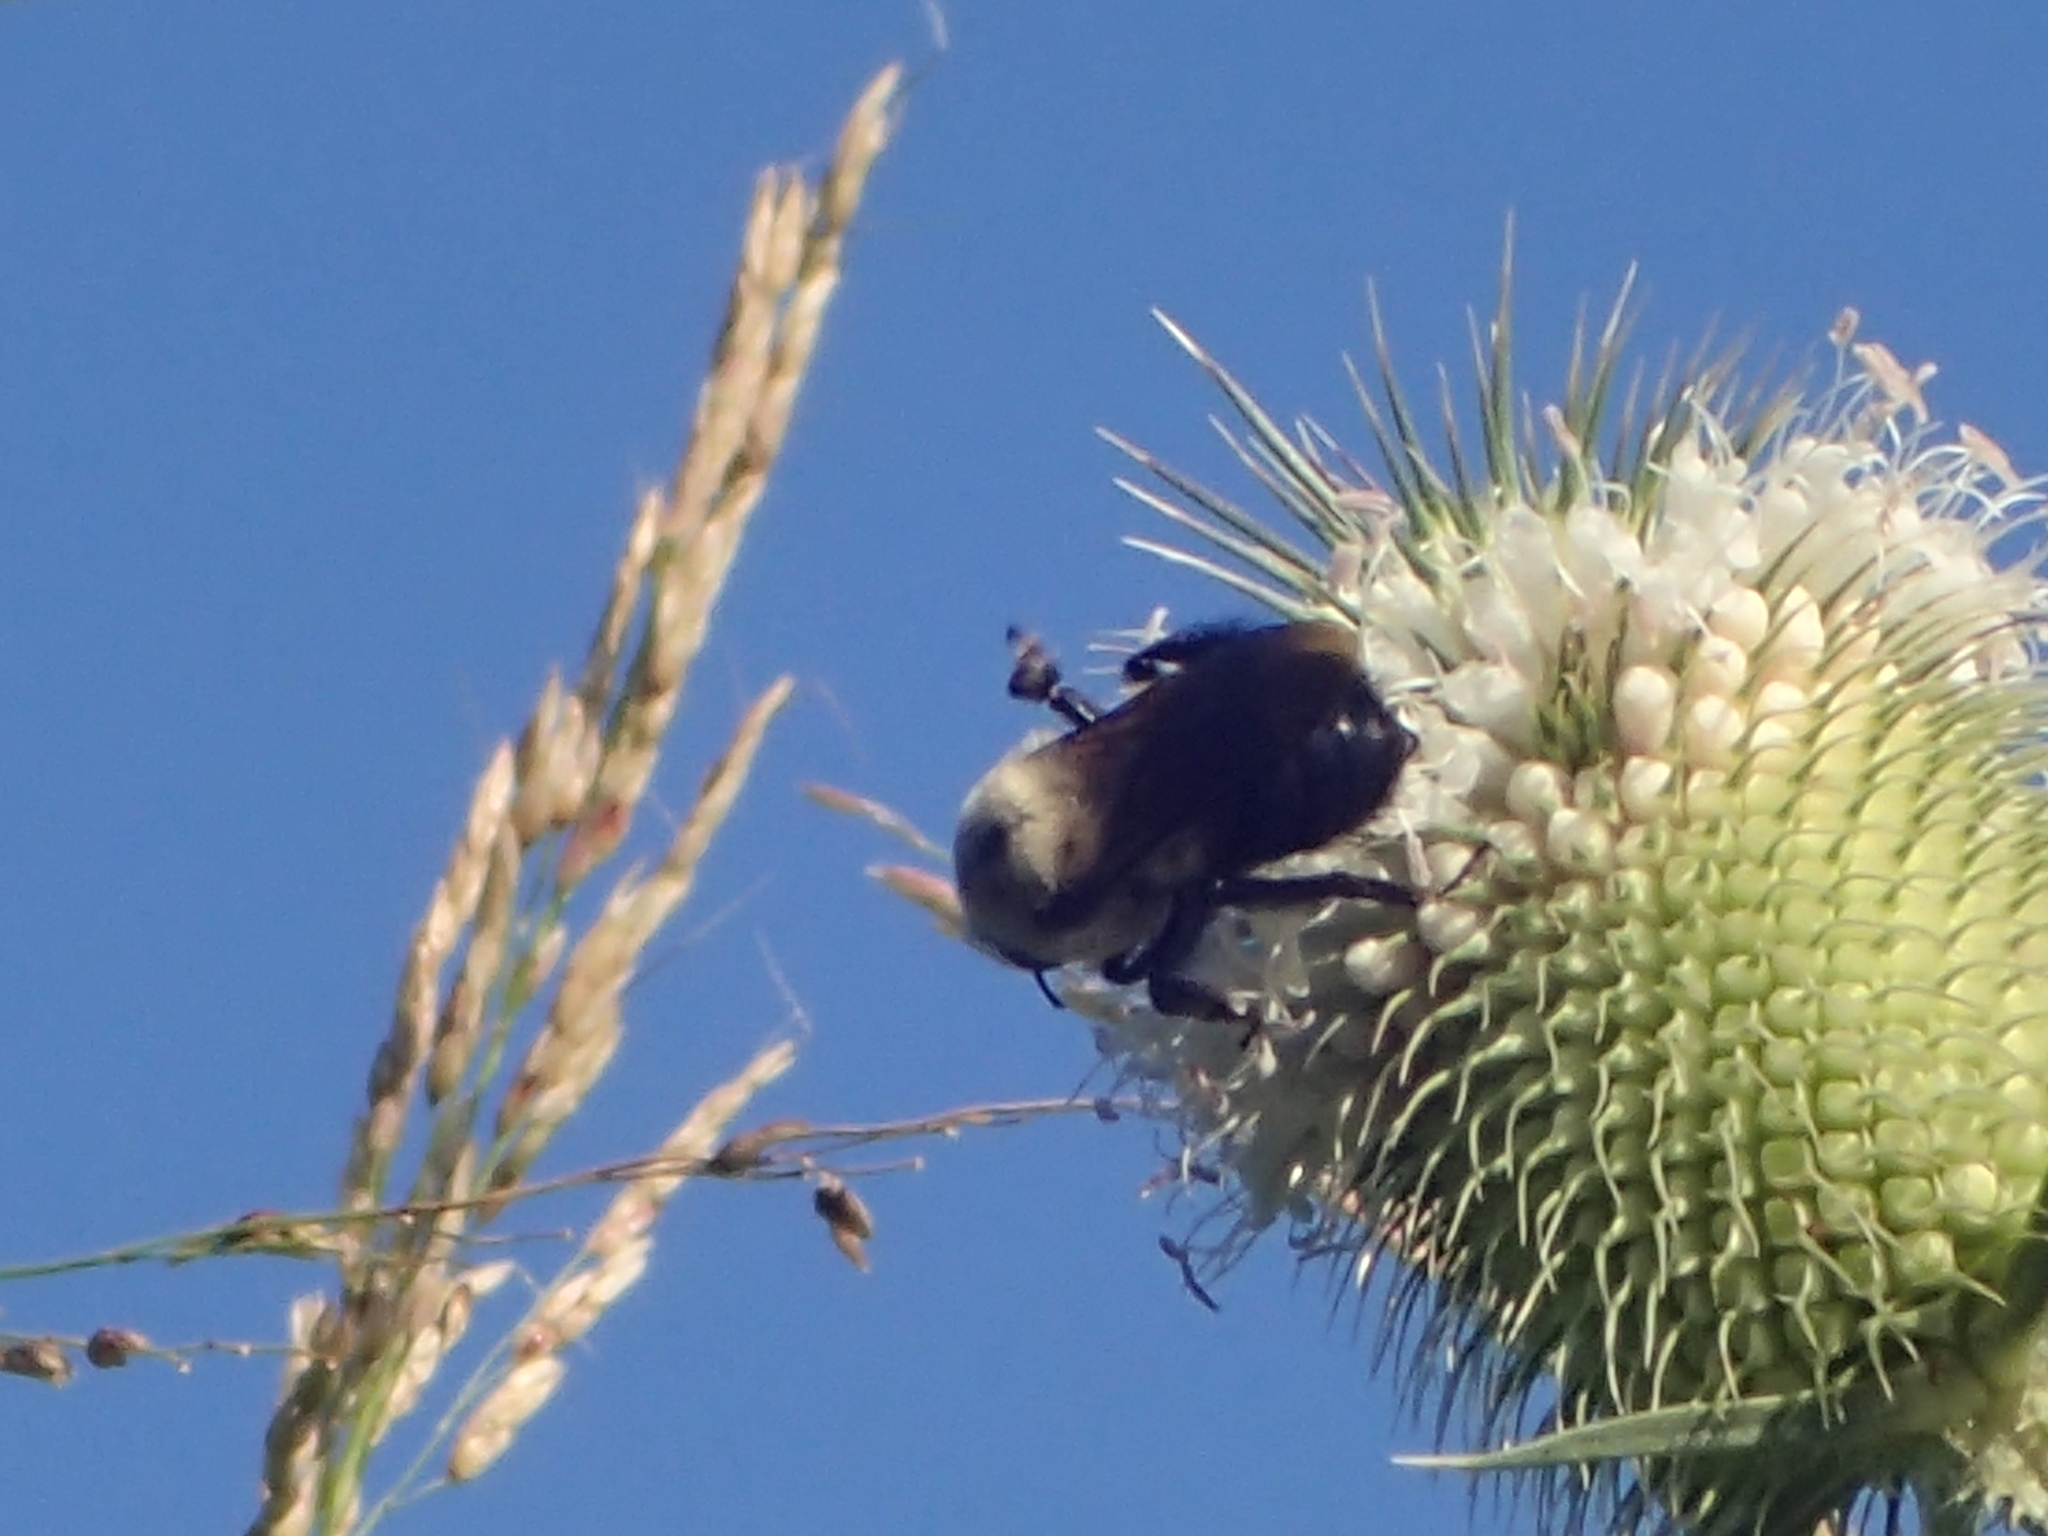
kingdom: Animalia
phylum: Arthropoda
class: Insecta
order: Hymenoptera
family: Apidae
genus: Bombus
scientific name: Bombus griseocollis
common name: Brown-belted bumble bee
